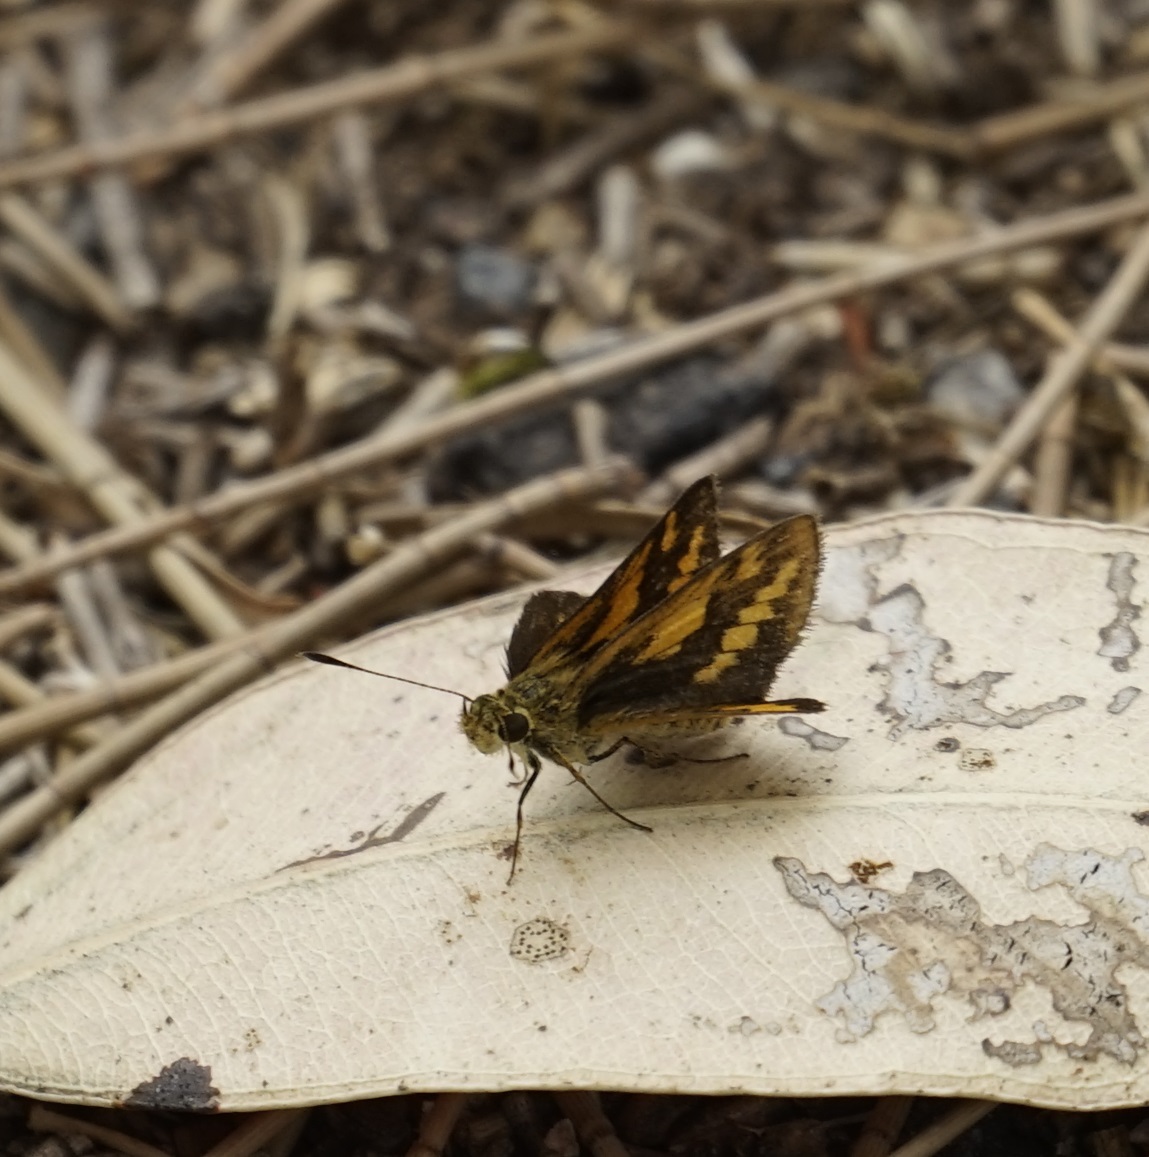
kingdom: Animalia
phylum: Arthropoda
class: Insecta
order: Lepidoptera
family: Hesperiidae
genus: Suniana
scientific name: Suniana sunias
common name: Wide-brand grass-dart
